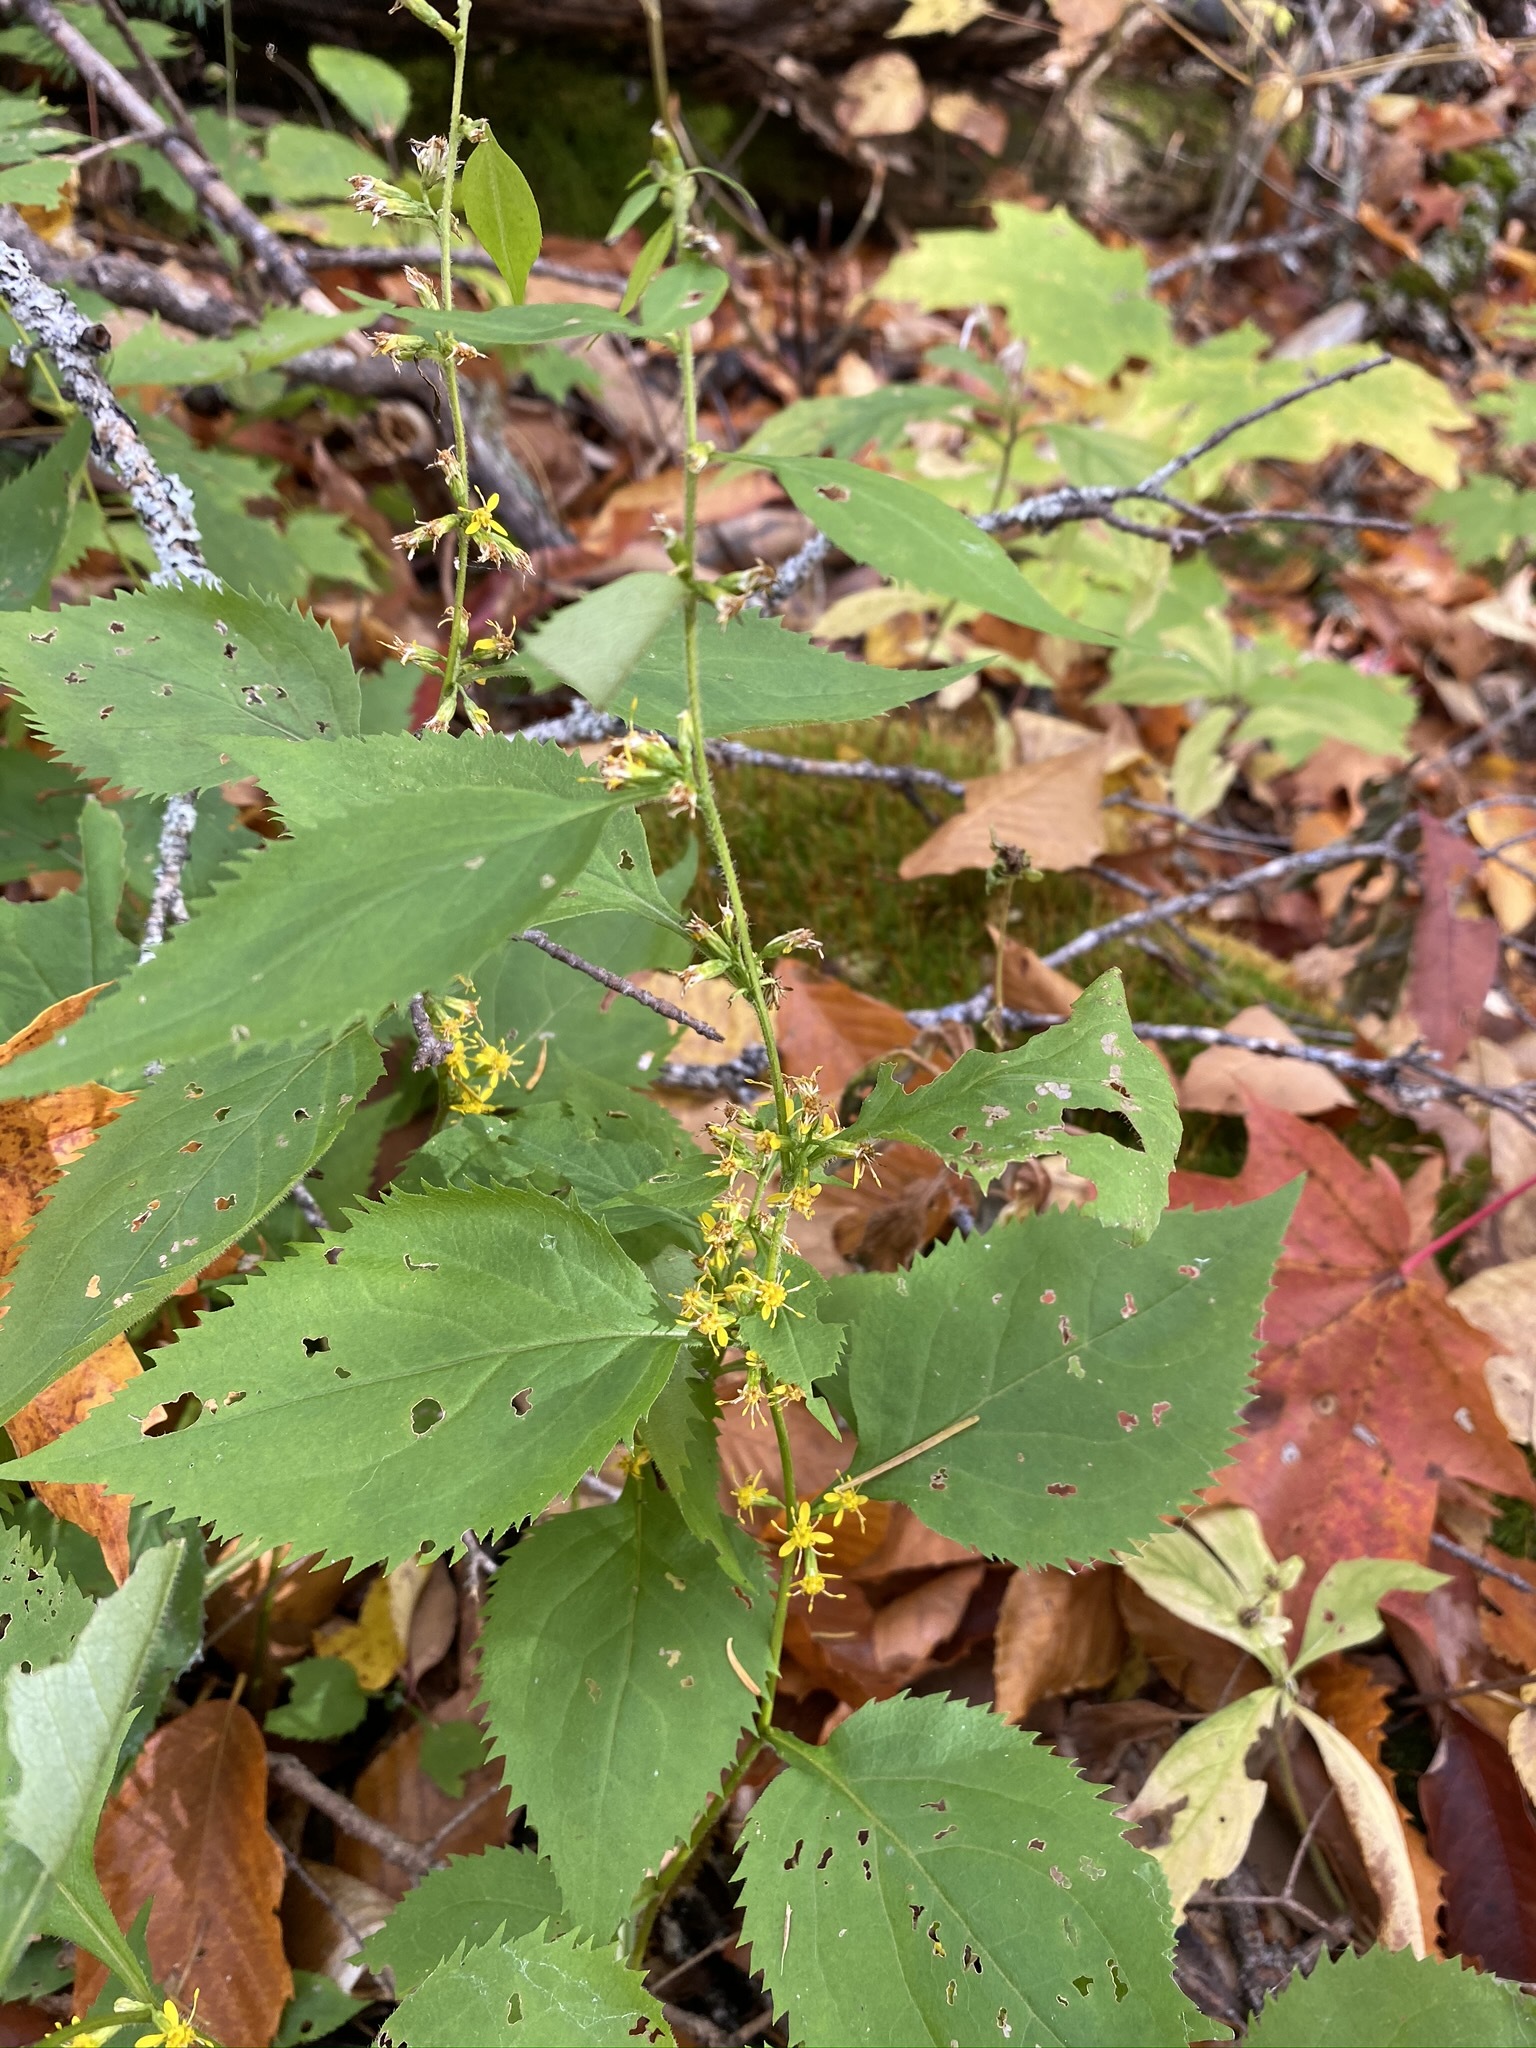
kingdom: Plantae
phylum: Tracheophyta
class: Magnoliopsida
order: Asterales
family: Asteraceae
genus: Solidago
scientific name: Solidago flexicaulis
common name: Zig-zag goldenrod
